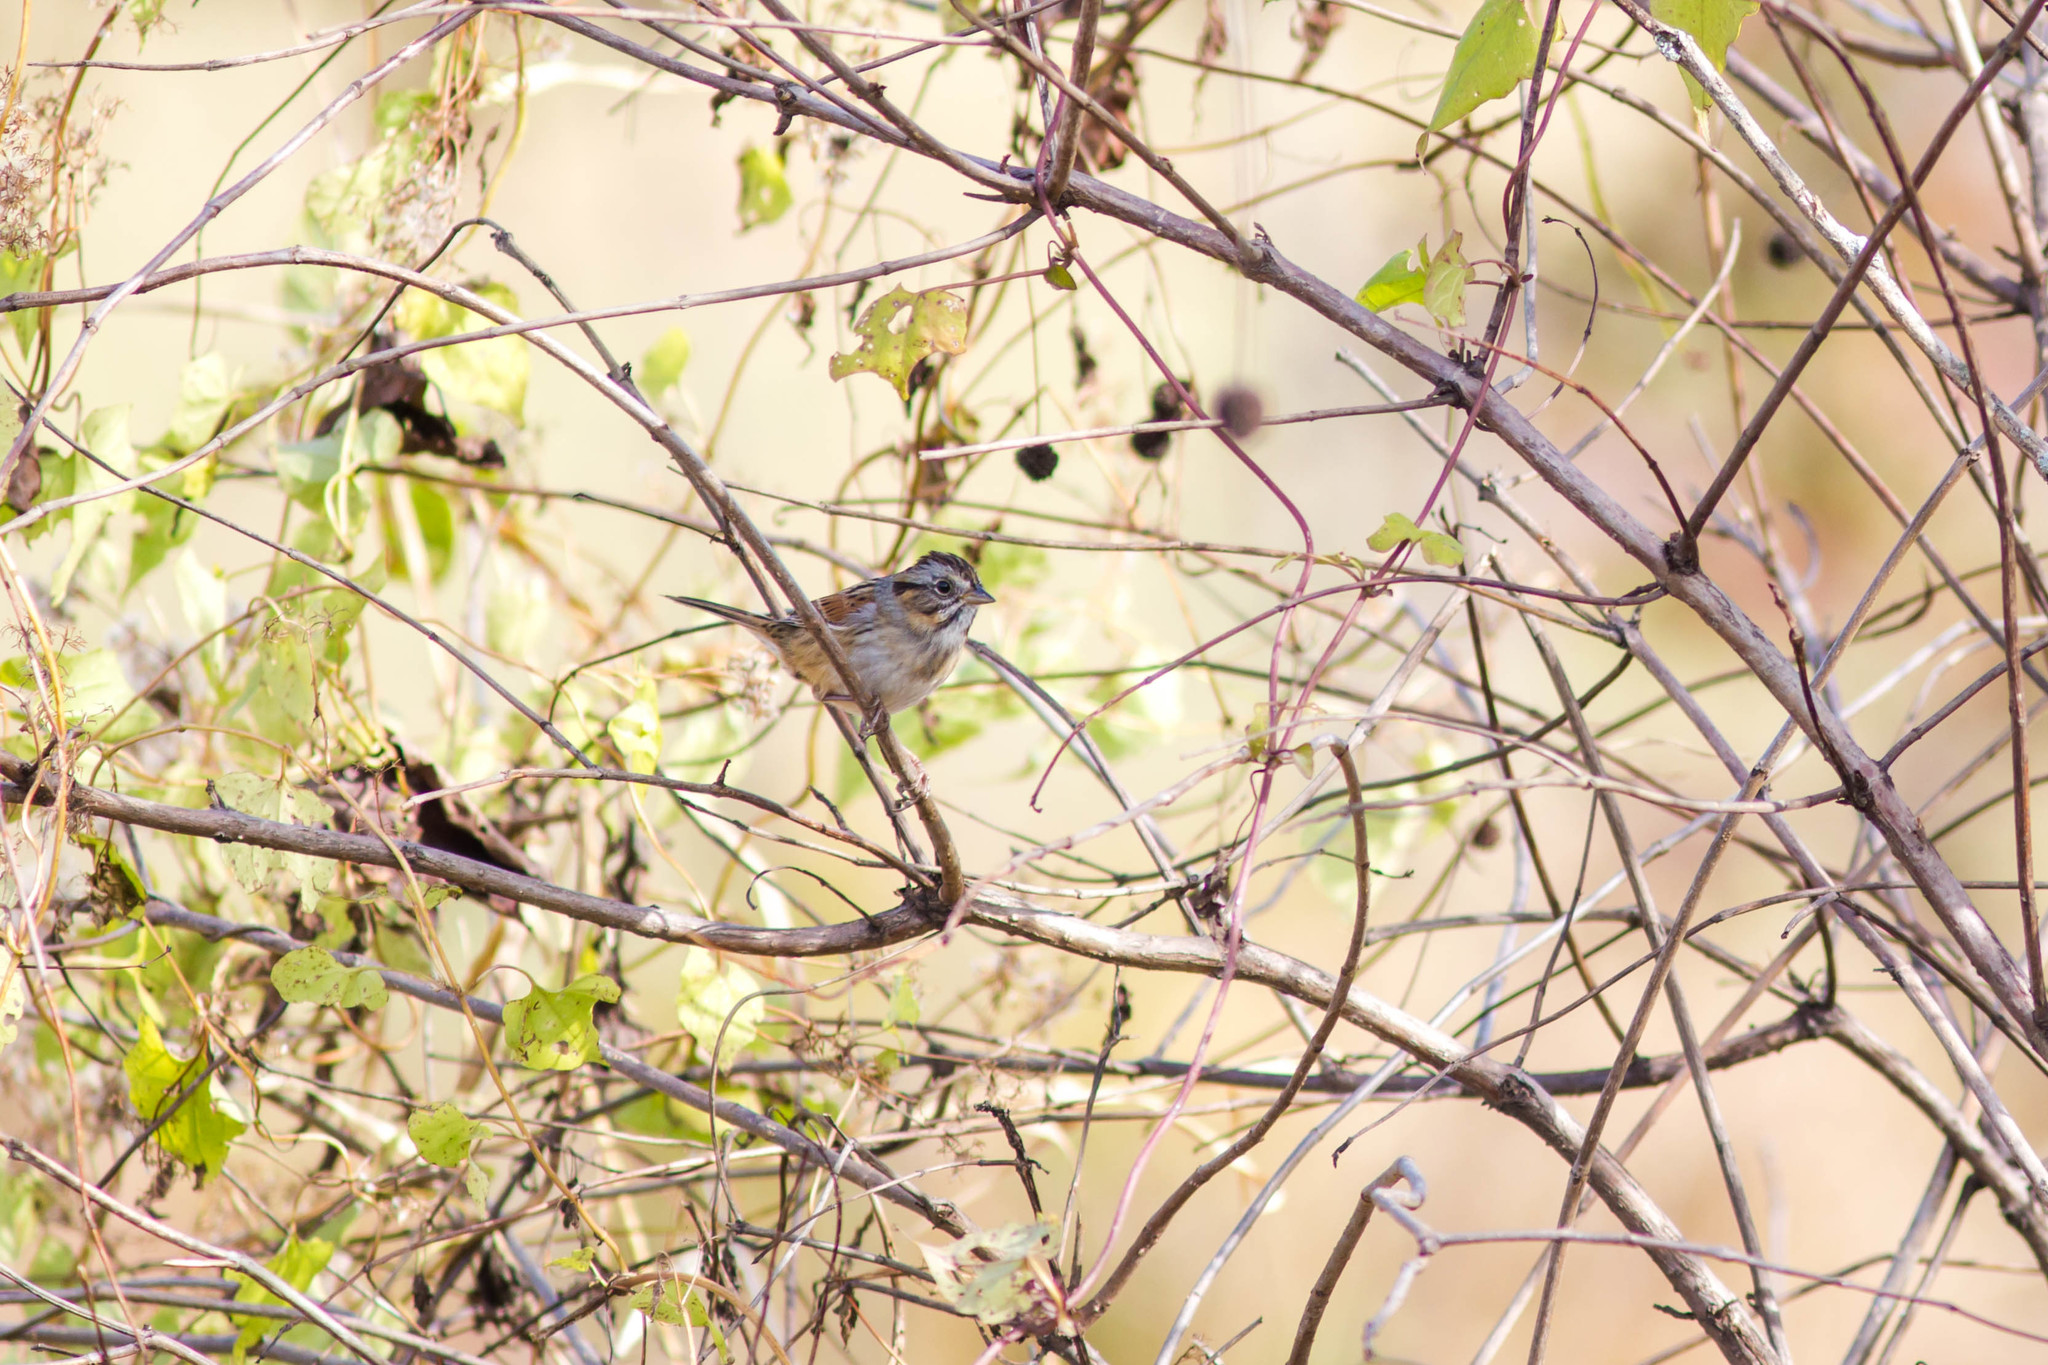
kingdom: Animalia
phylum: Chordata
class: Aves
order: Passeriformes
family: Passerellidae
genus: Melospiza
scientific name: Melospiza georgiana
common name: Swamp sparrow
